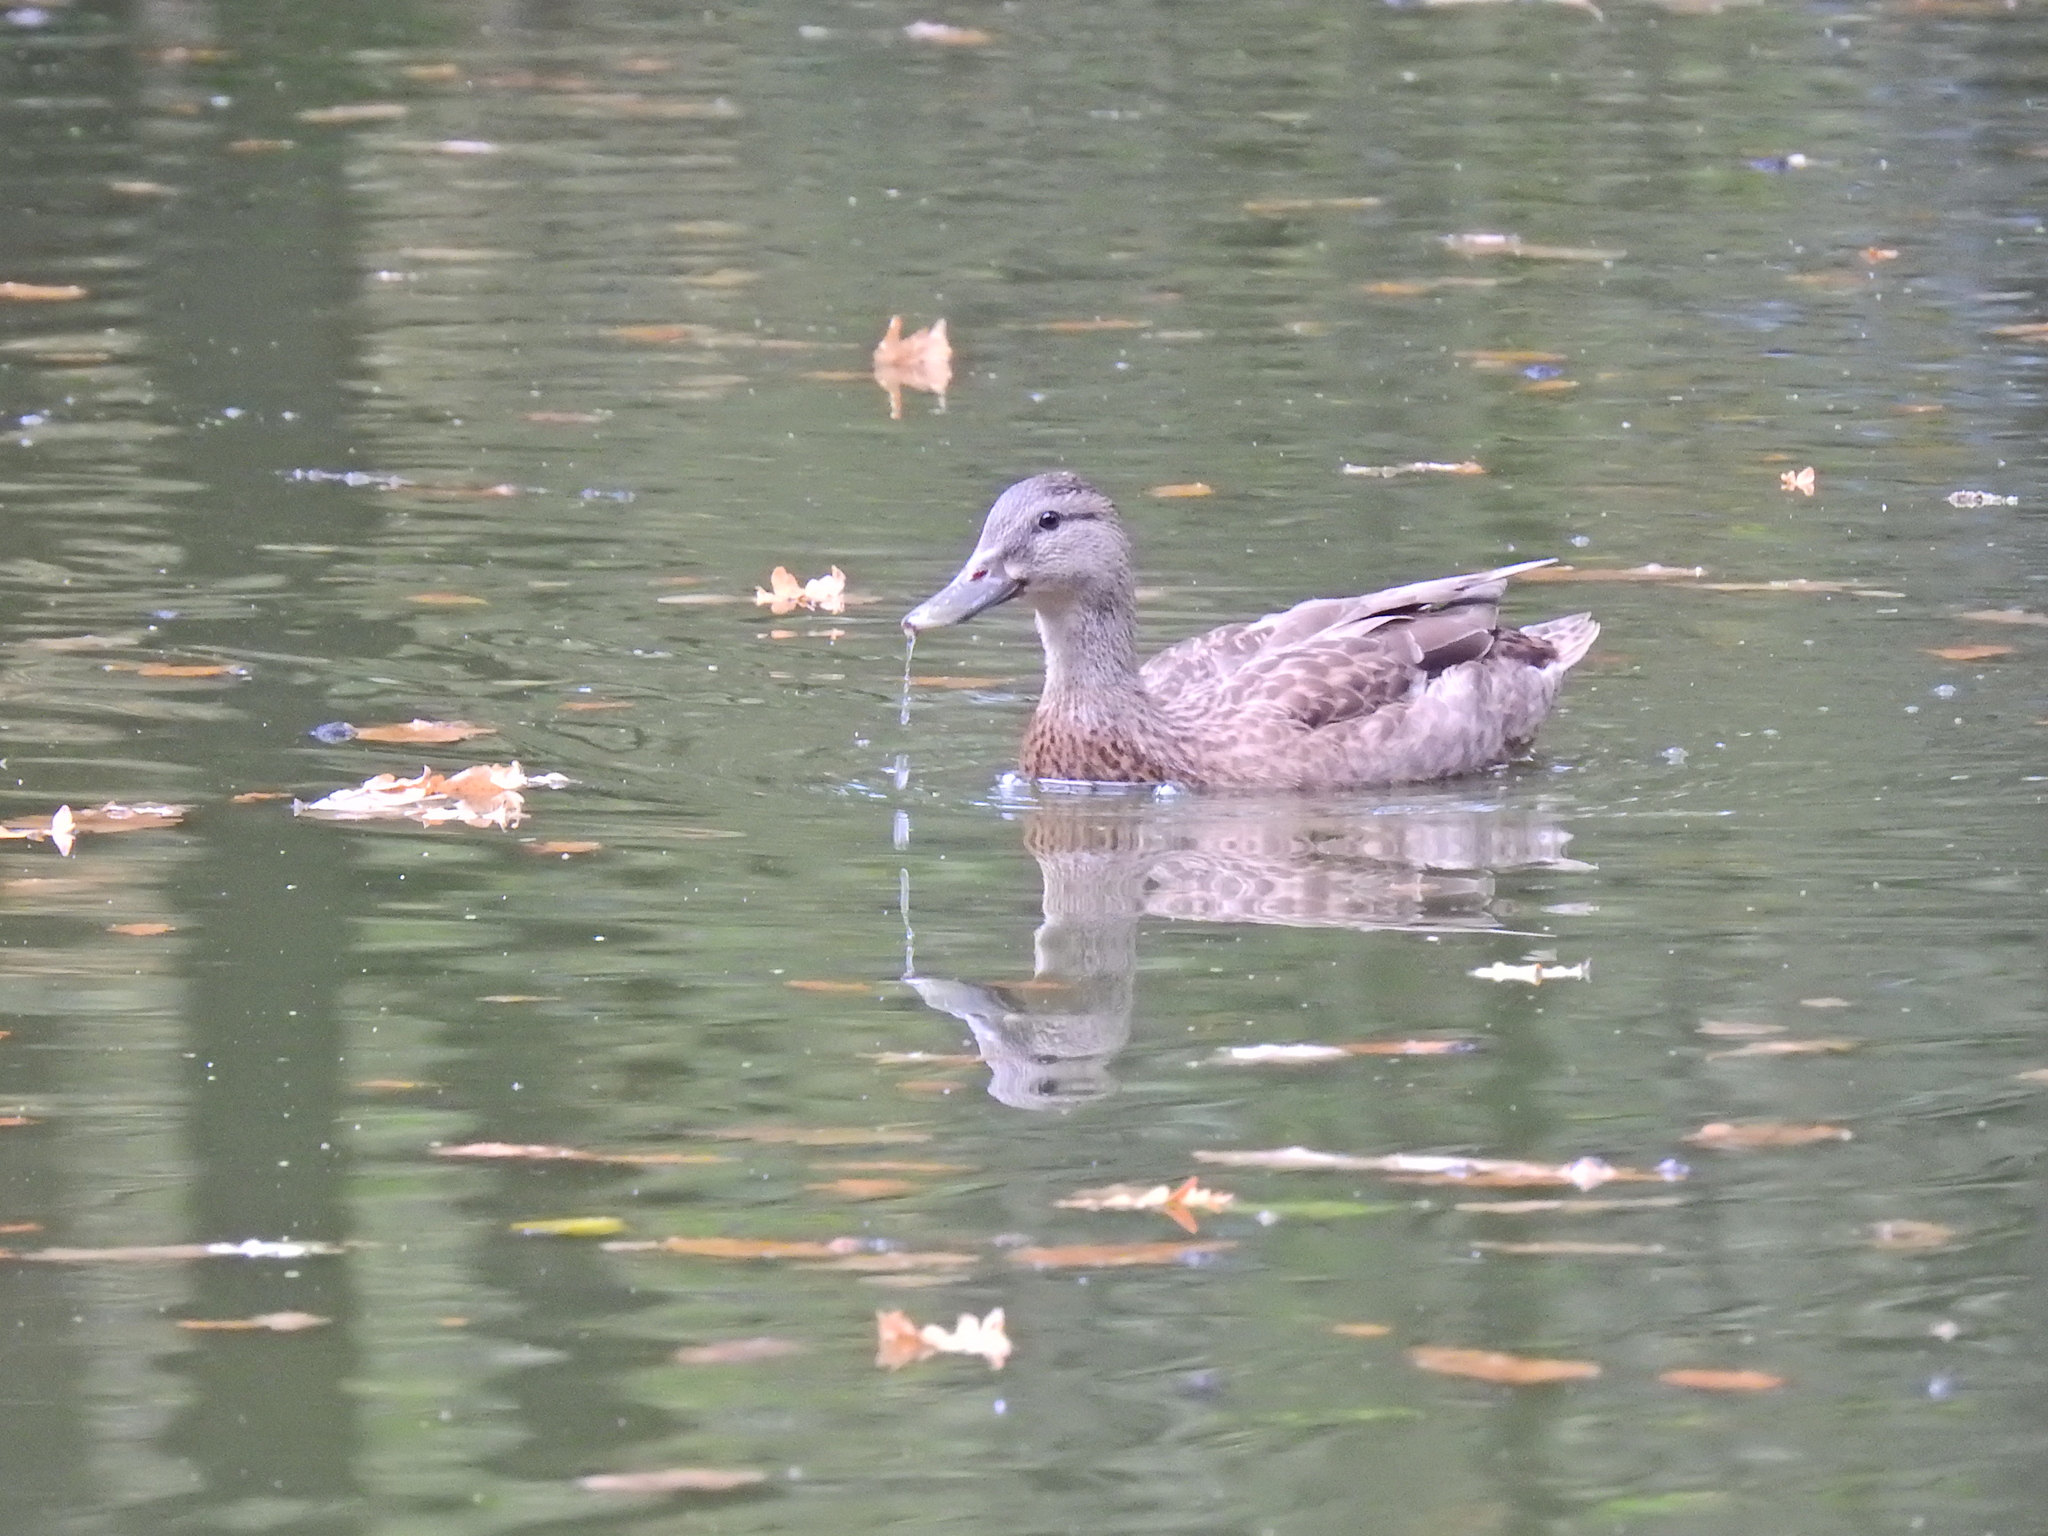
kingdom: Animalia
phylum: Chordata
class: Aves
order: Anseriformes
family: Anatidae
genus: Anas
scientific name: Anas platyrhynchos
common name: Mallard
